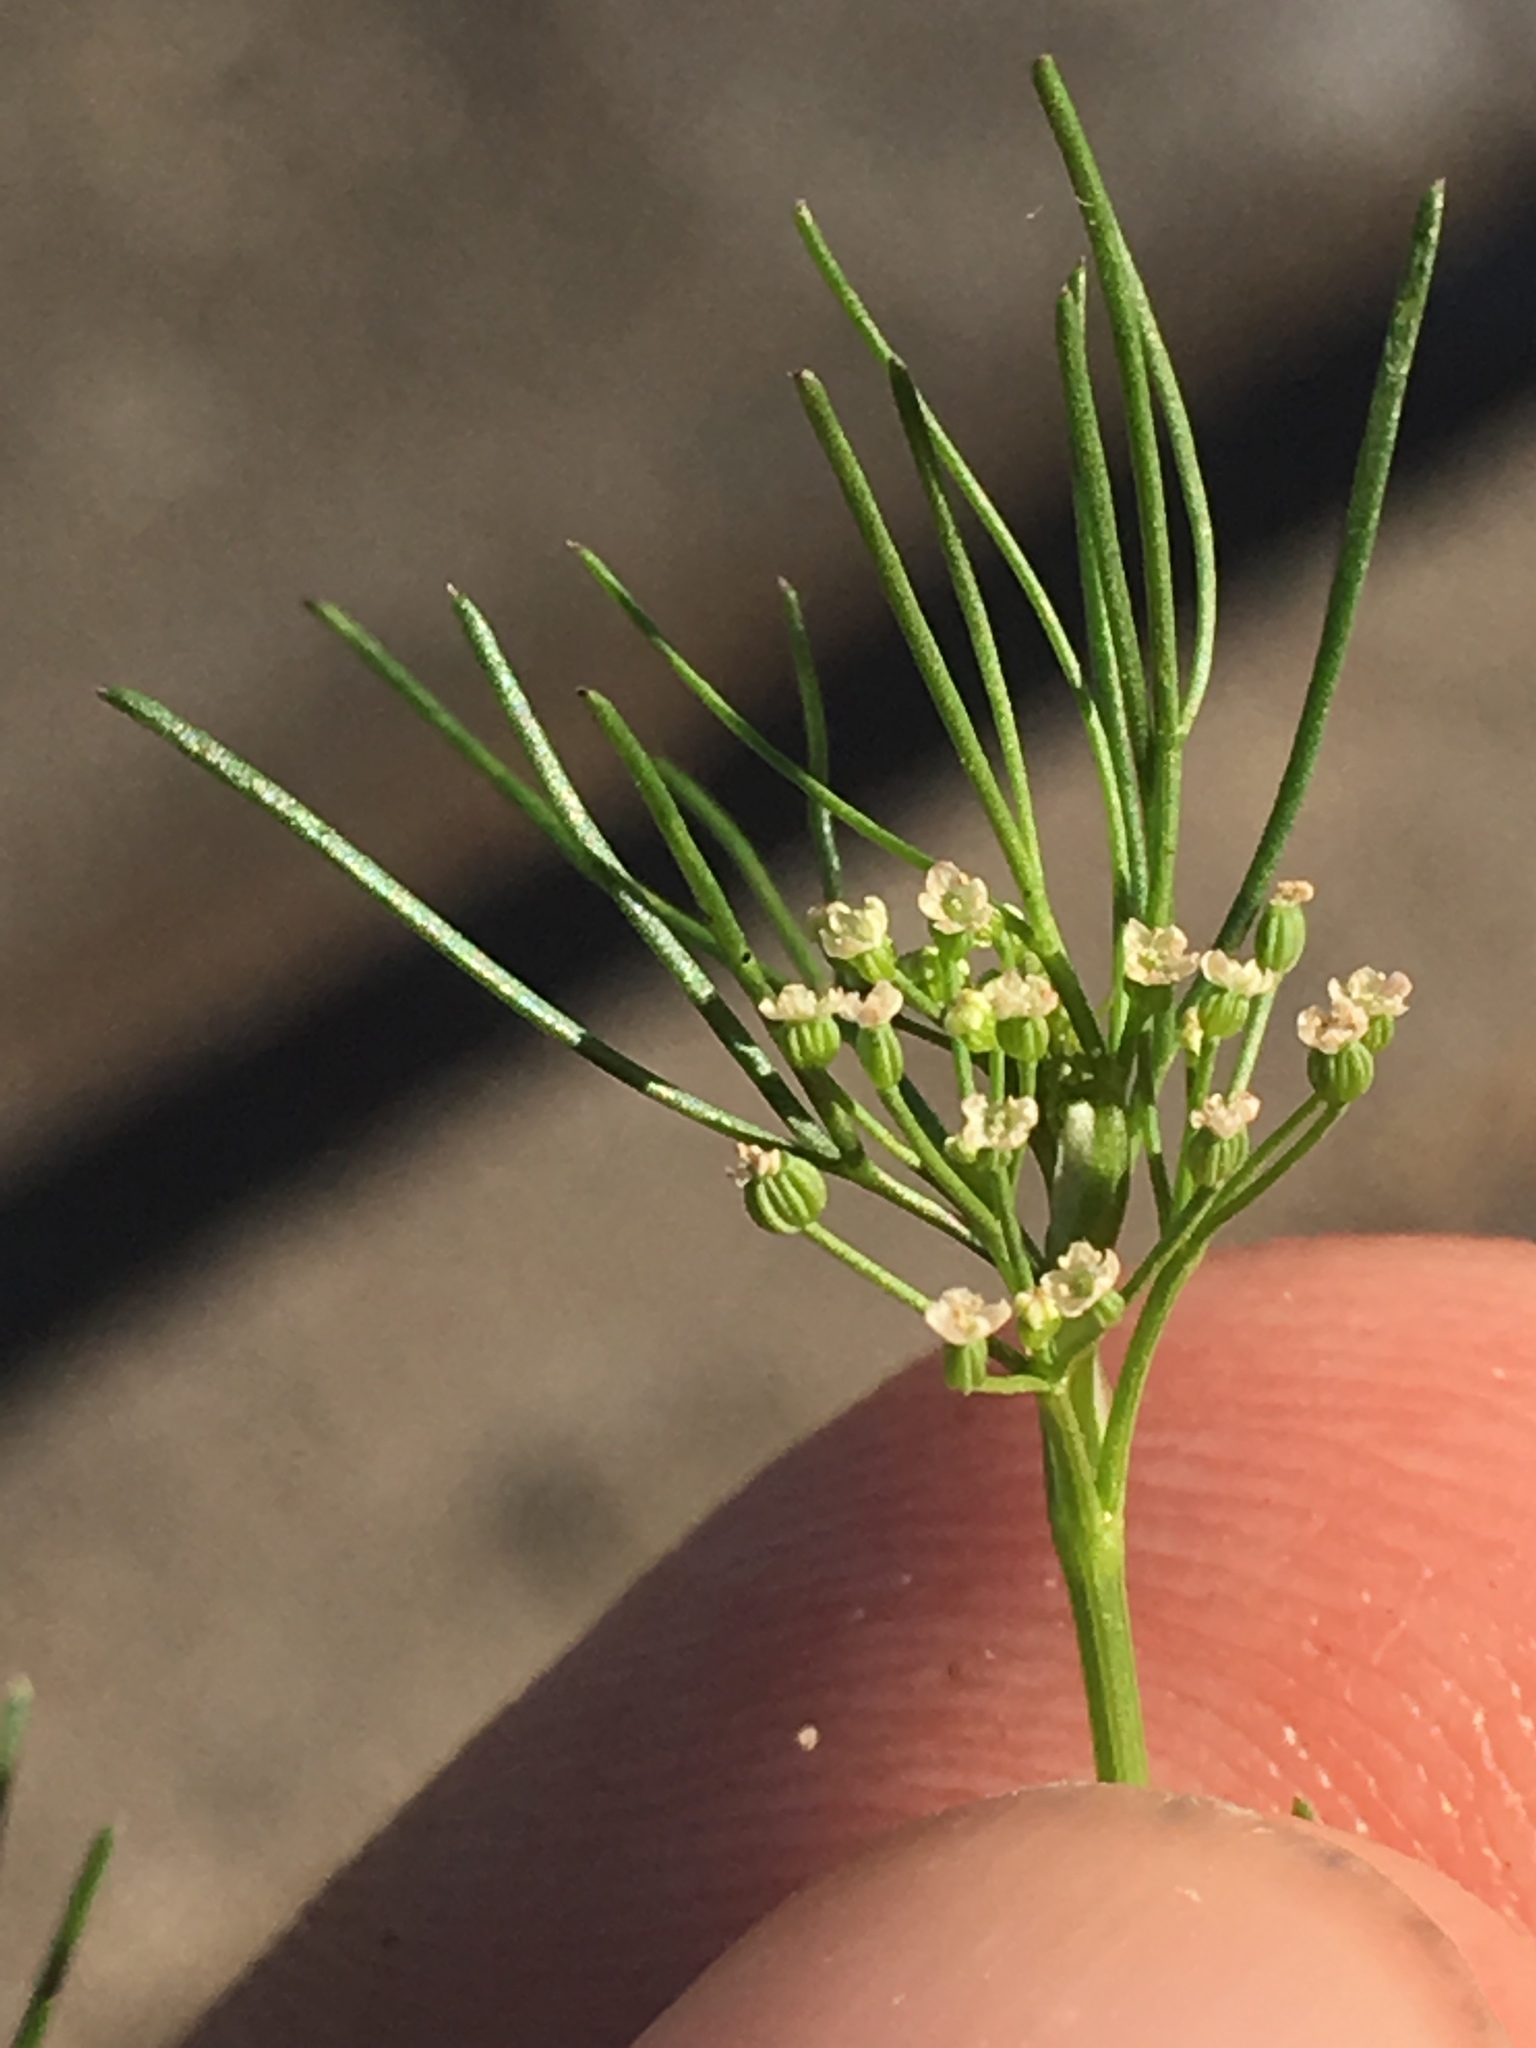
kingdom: Plantae
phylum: Tracheophyta
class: Magnoliopsida
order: Apiales
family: Apiaceae
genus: Cyclospermum
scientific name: Cyclospermum leptophyllum
